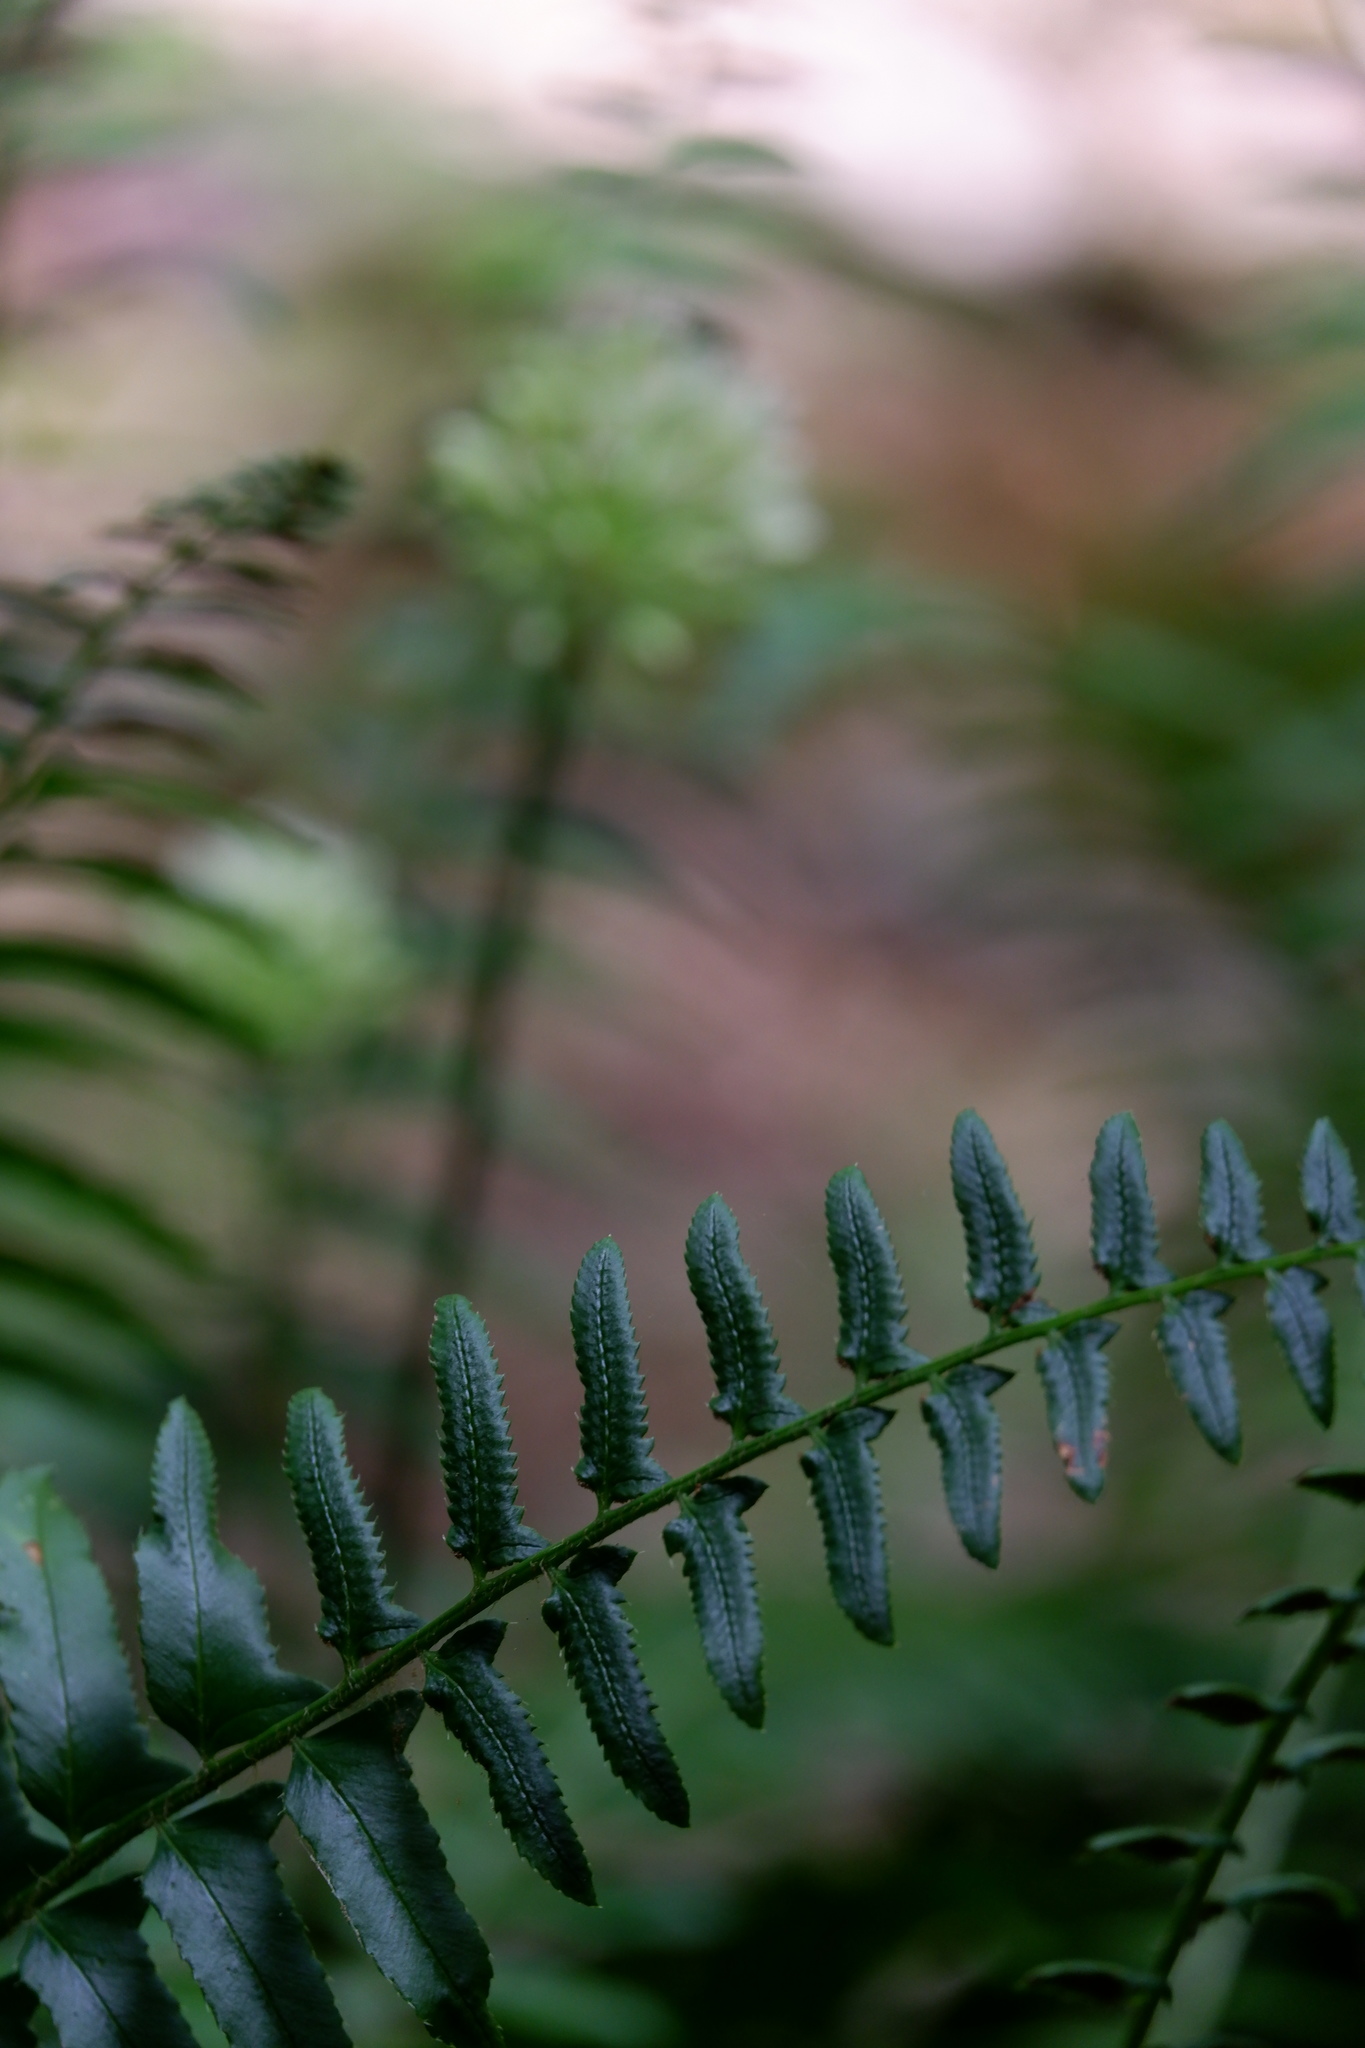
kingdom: Plantae
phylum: Tracheophyta
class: Polypodiopsida
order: Polypodiales
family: Dryopteridaceae
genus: Polystichum
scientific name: Polystichum acrostichoides
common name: Christmas fern
